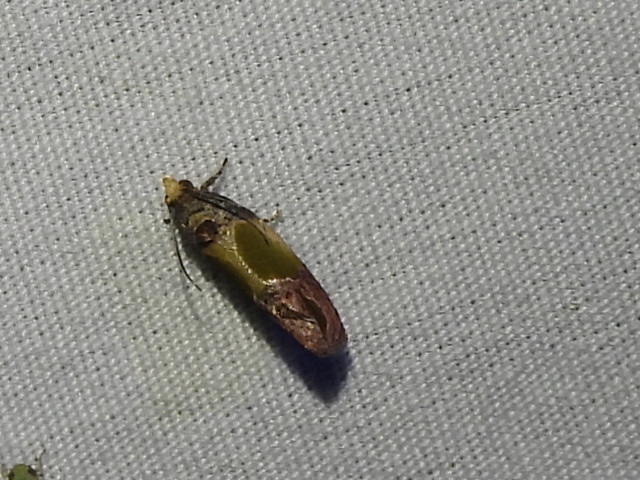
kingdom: Animalia
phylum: Arthropoda
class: Insecta
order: Lepidoptera
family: Tortricidae
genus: Eumarozia
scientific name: Eumarozia malachitana
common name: Sculptured moth
